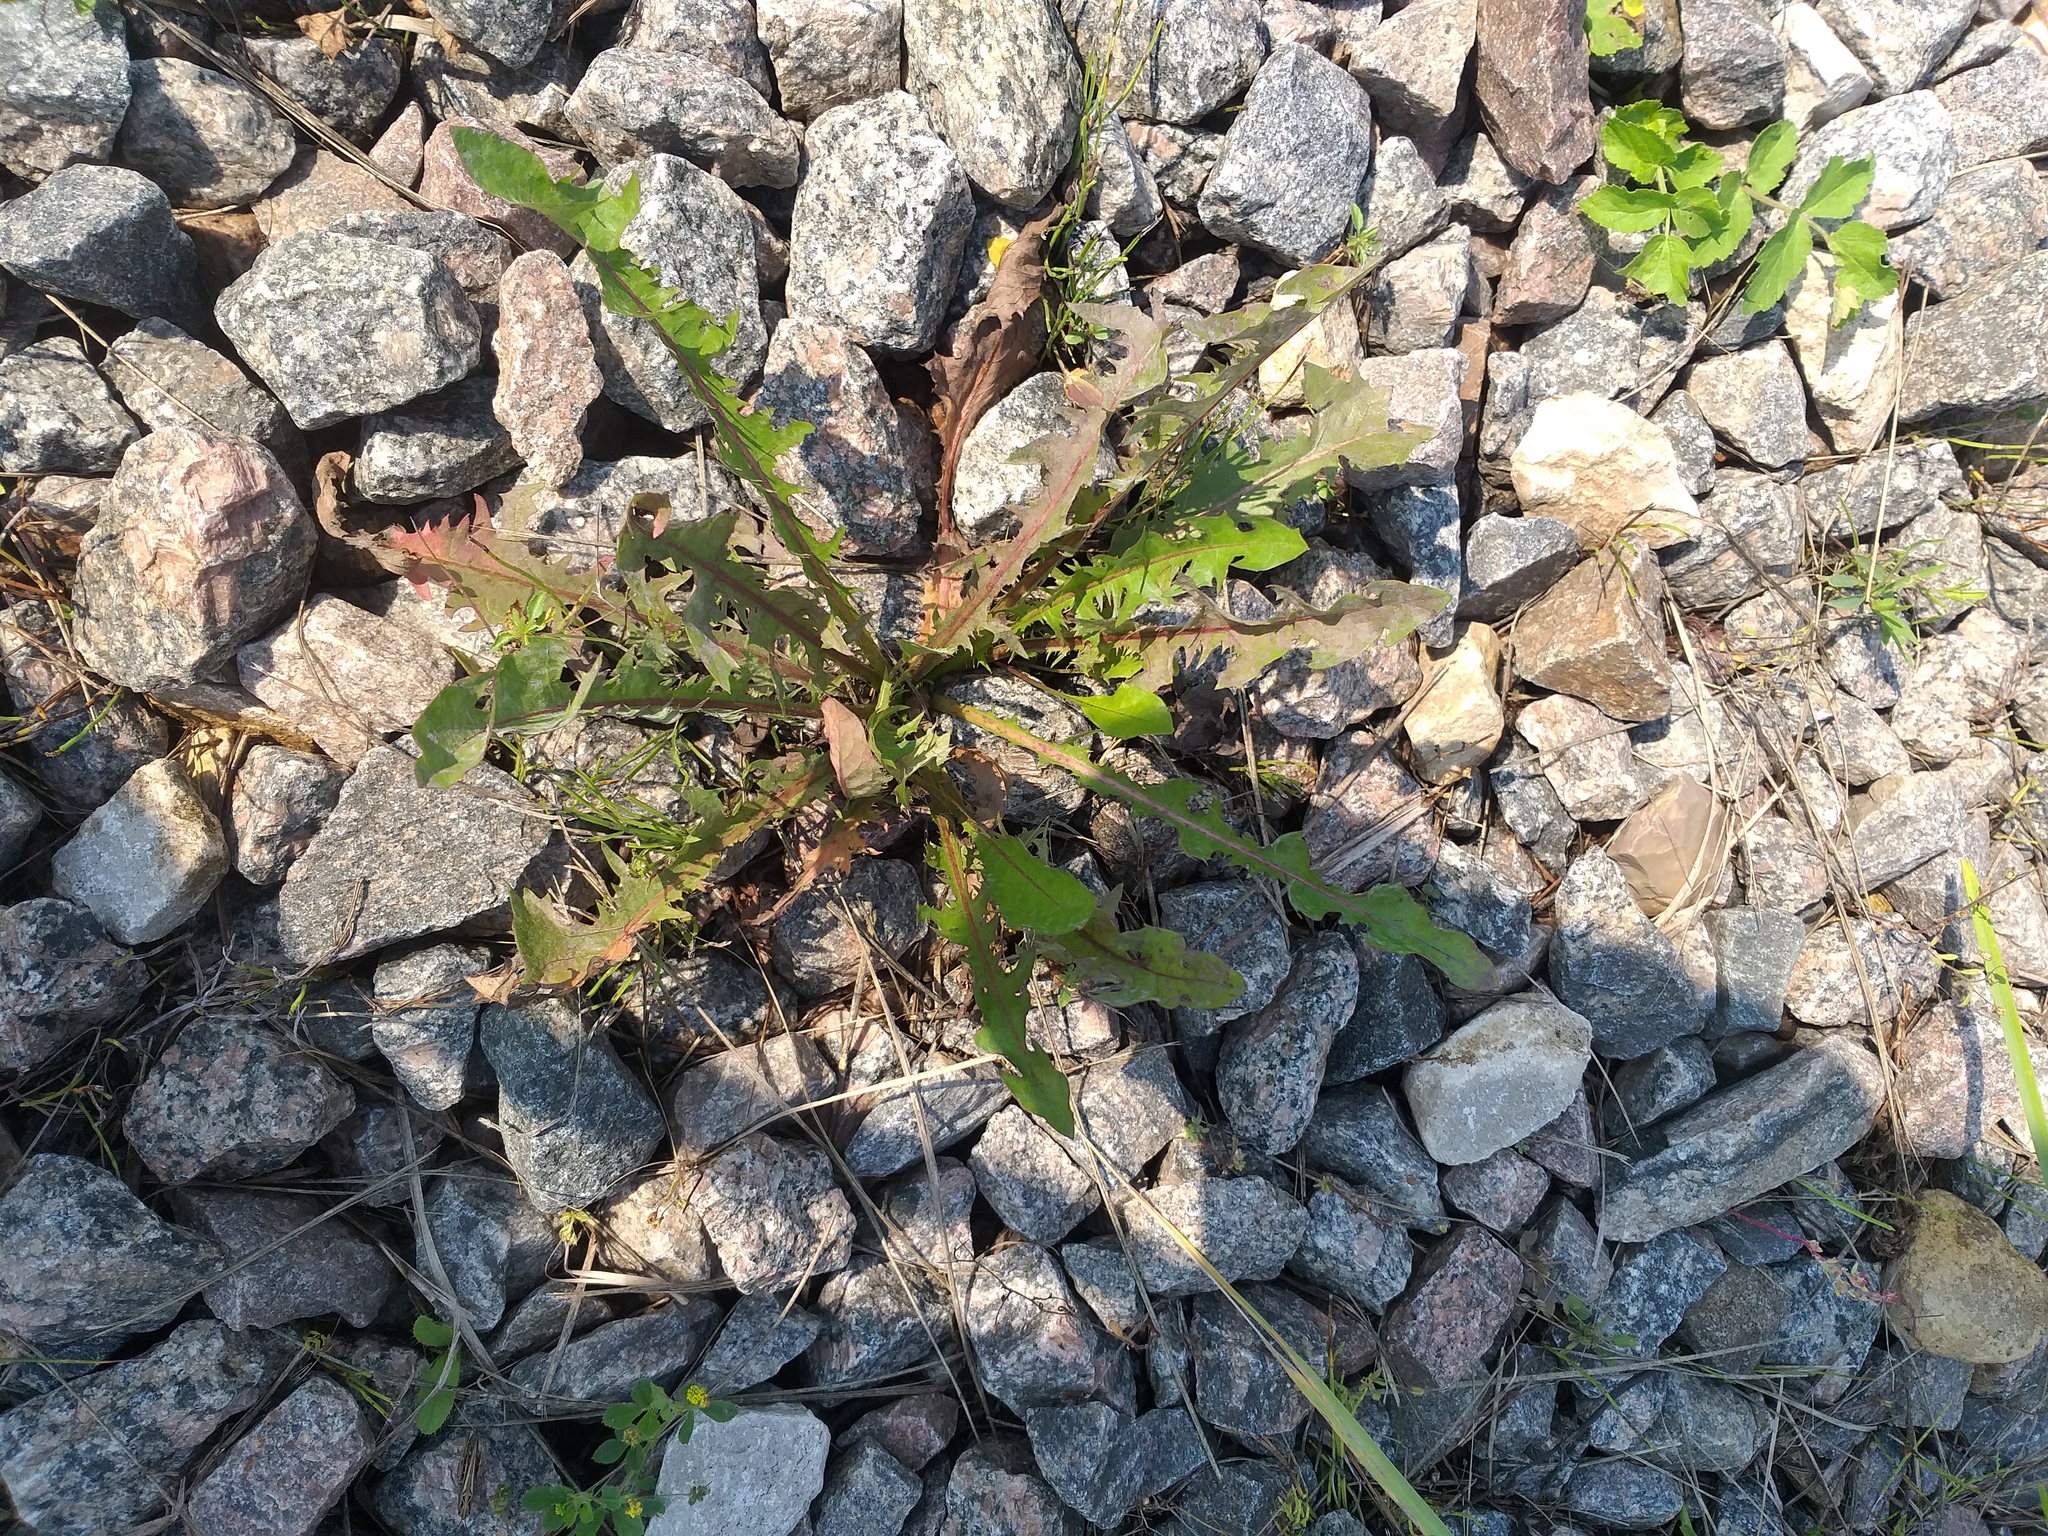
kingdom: Plantae
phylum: Tracheophyta
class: Magnoliopsida
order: Asterales
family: Asteraceae
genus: Taraxacum
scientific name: Taraxacum officinale
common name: Common dandelion
